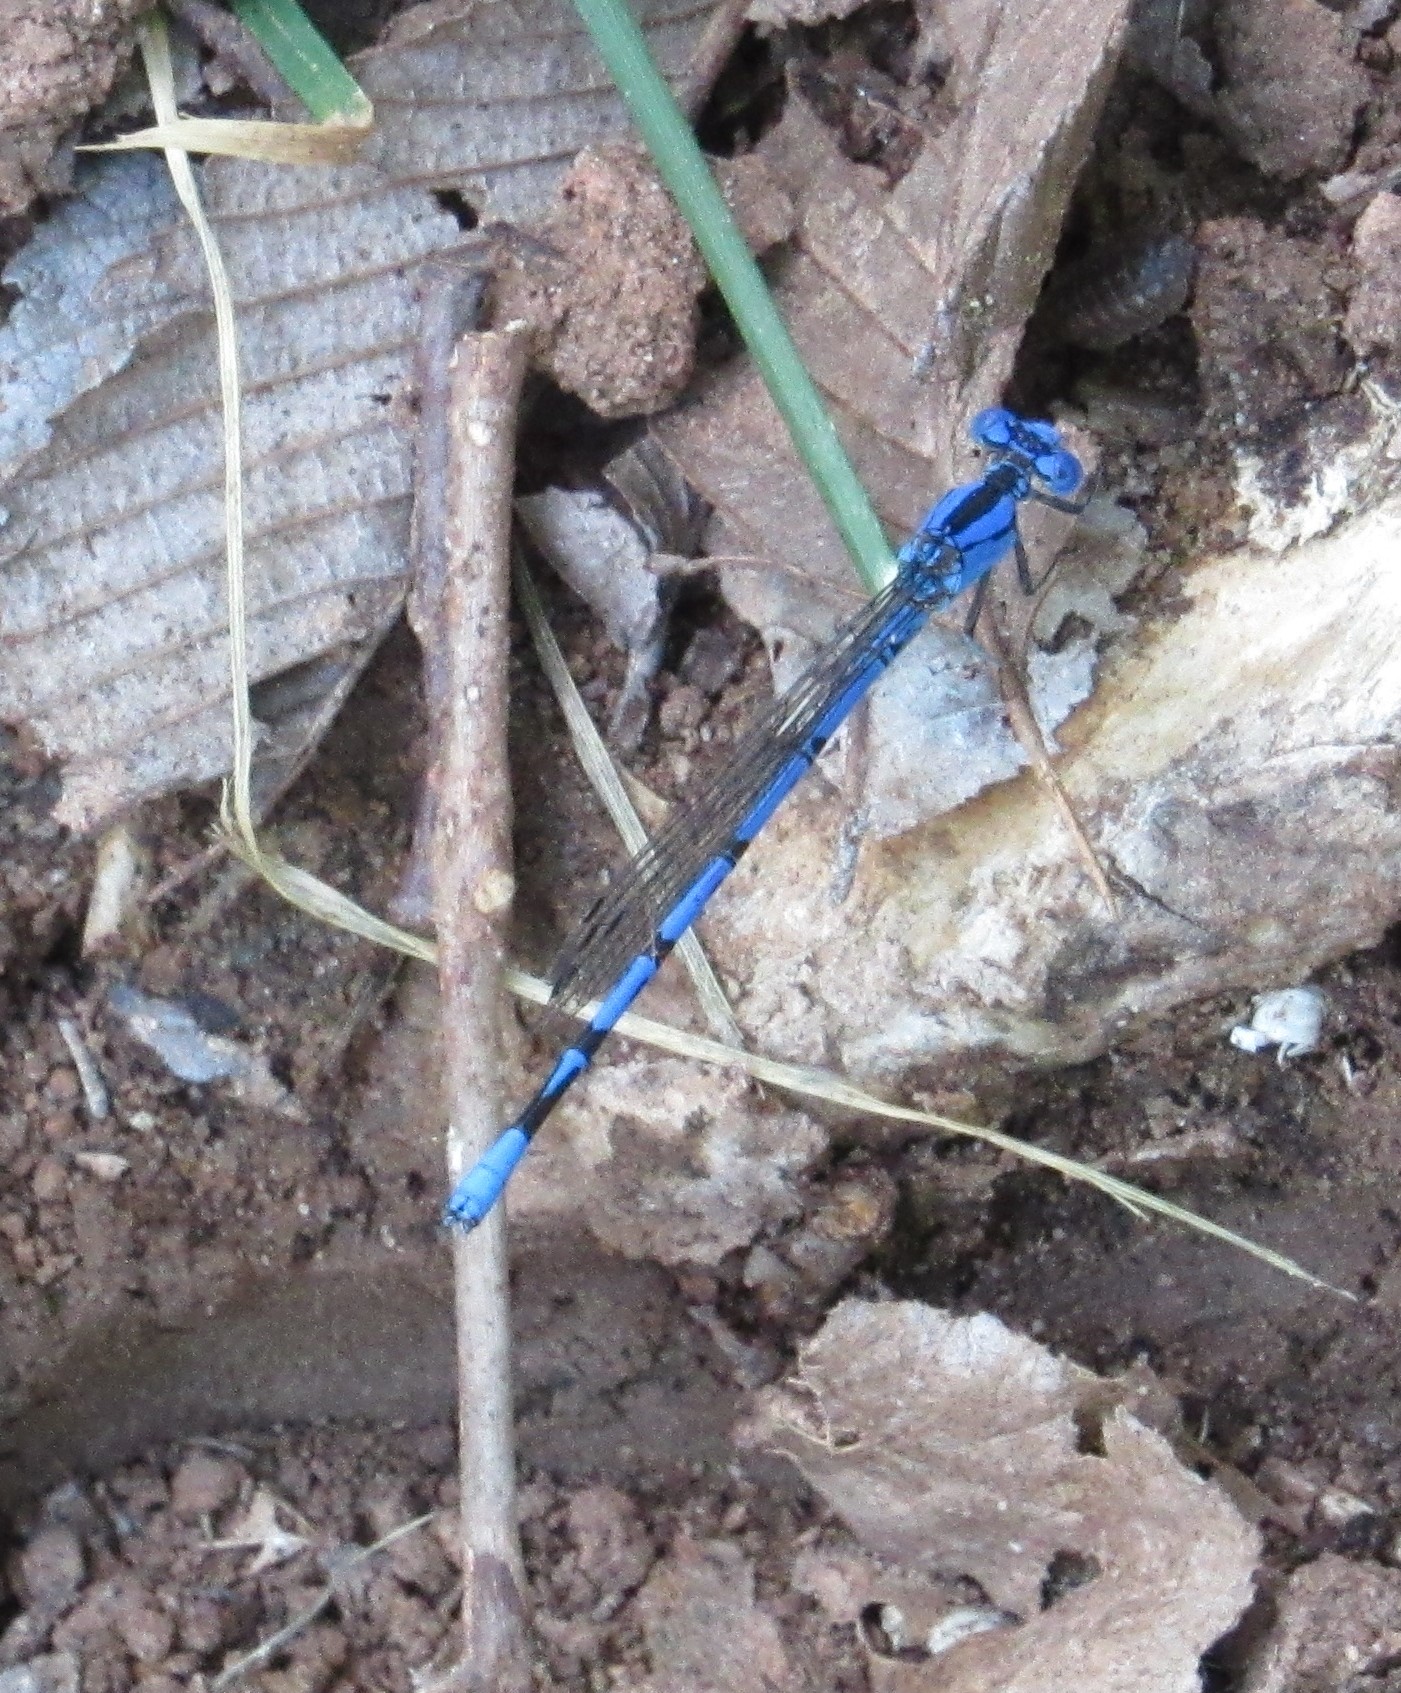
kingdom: Animalia
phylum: Arthropoda
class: Insecta
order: Odonata
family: Coenagrionidae
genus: Argia
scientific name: Argia funebris
